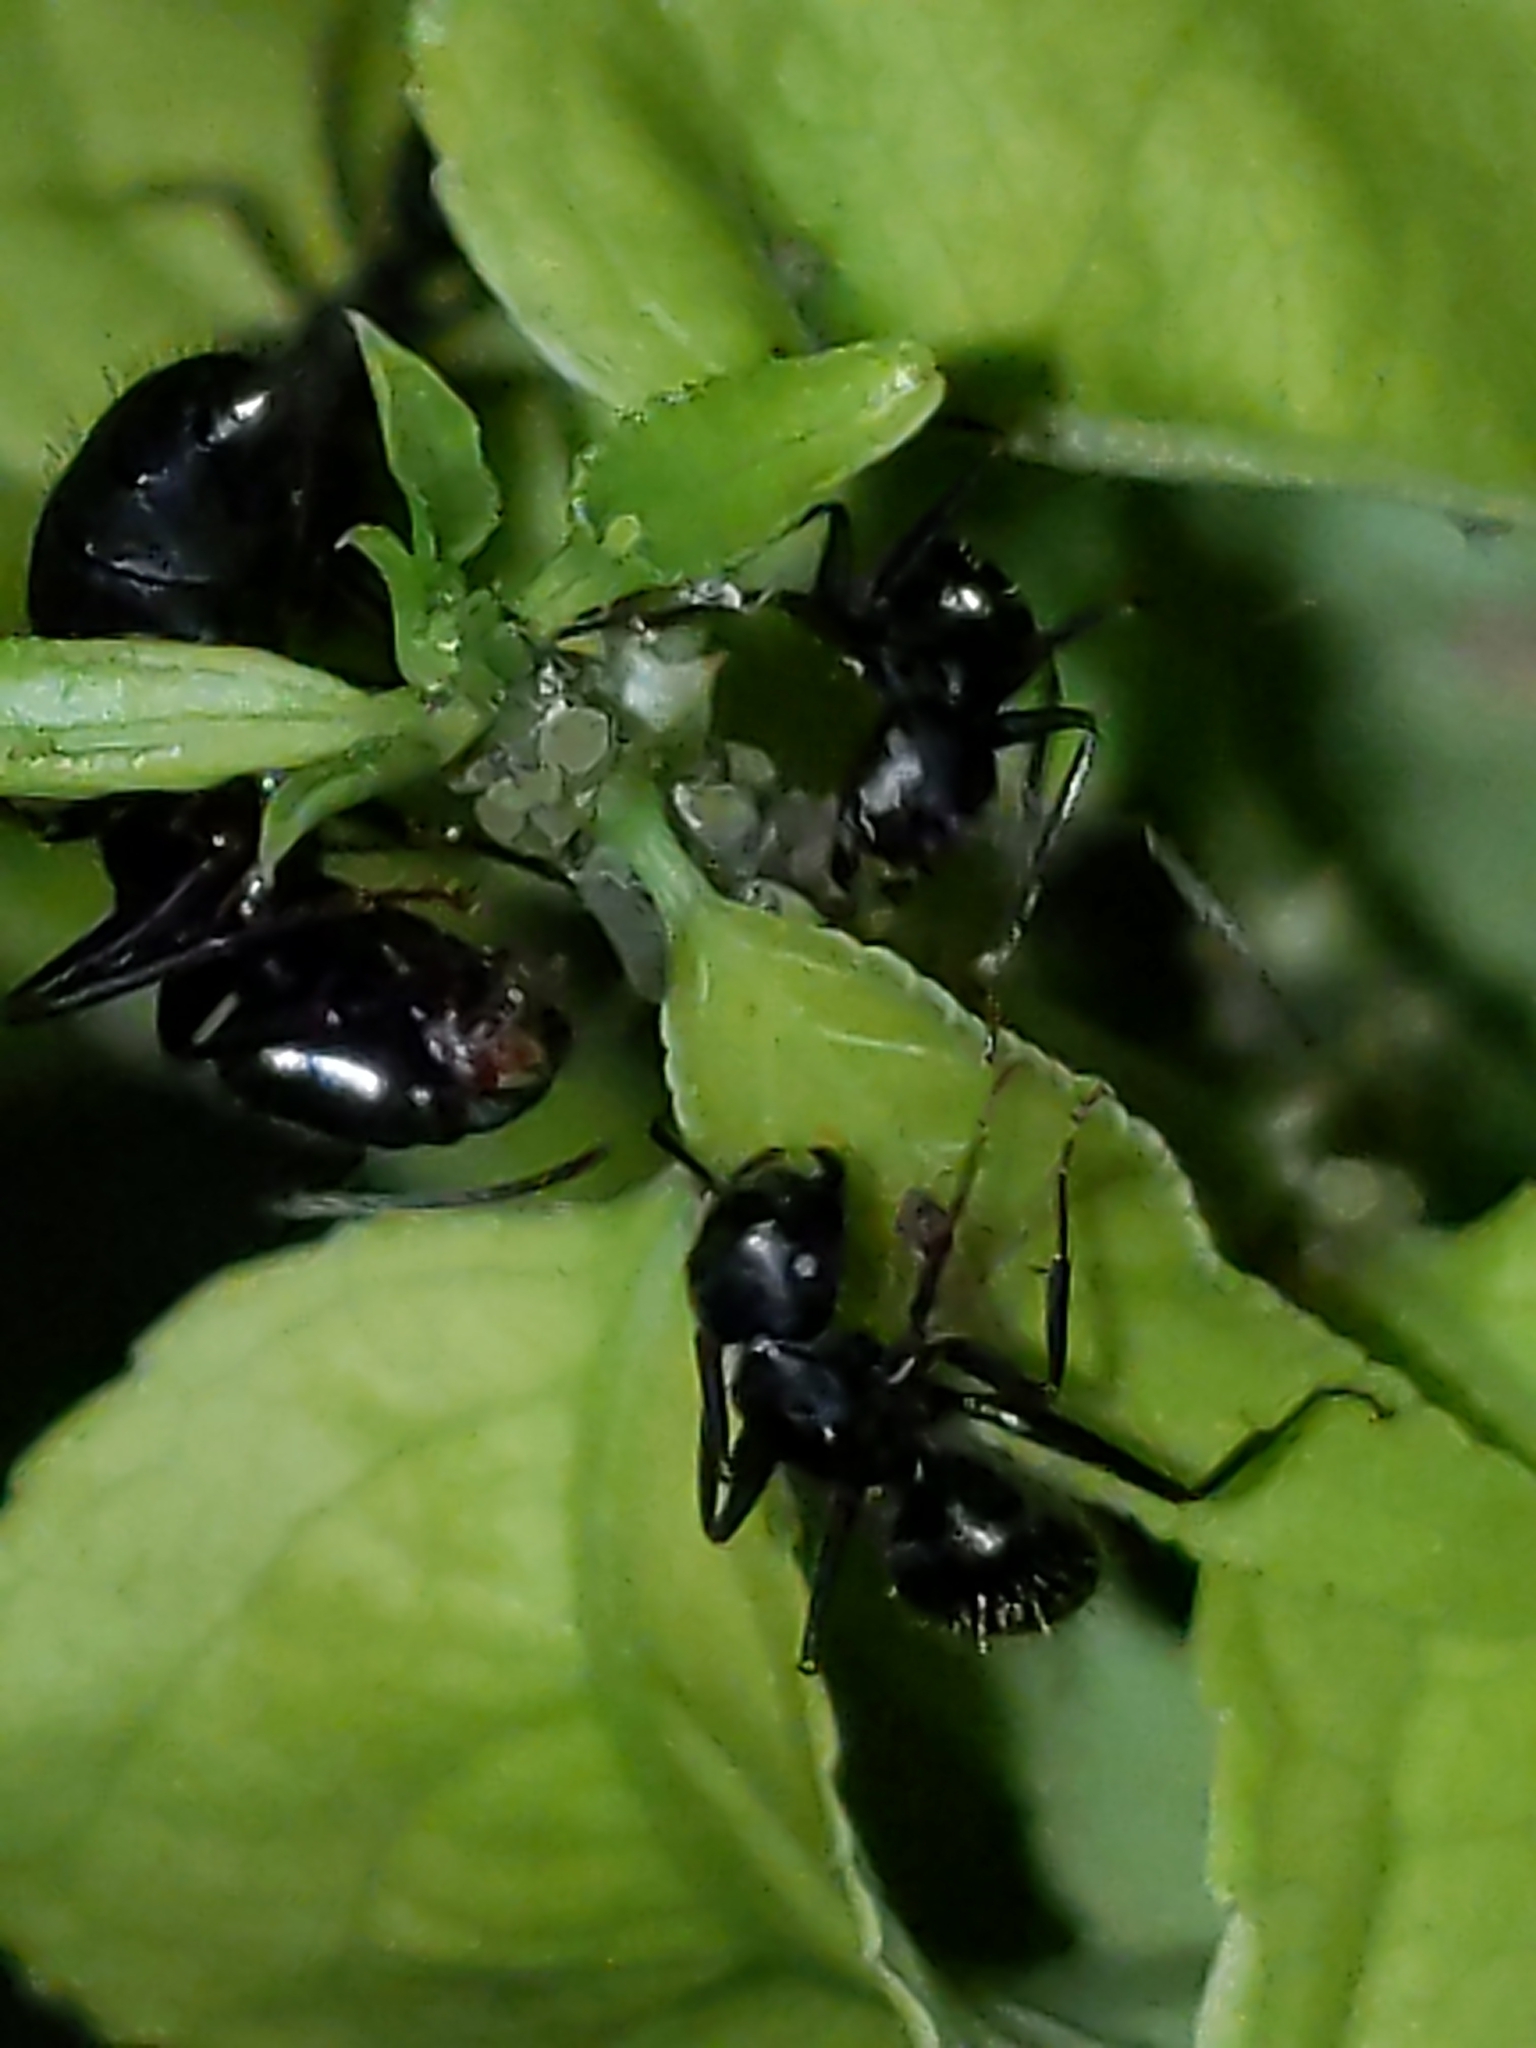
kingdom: Animalia
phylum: Arthropoda
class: Insecta
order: Hymenoptera
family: Formicidae
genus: Camponotus
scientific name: Camponotus pennsylvanicus
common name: Black carpenter ant
